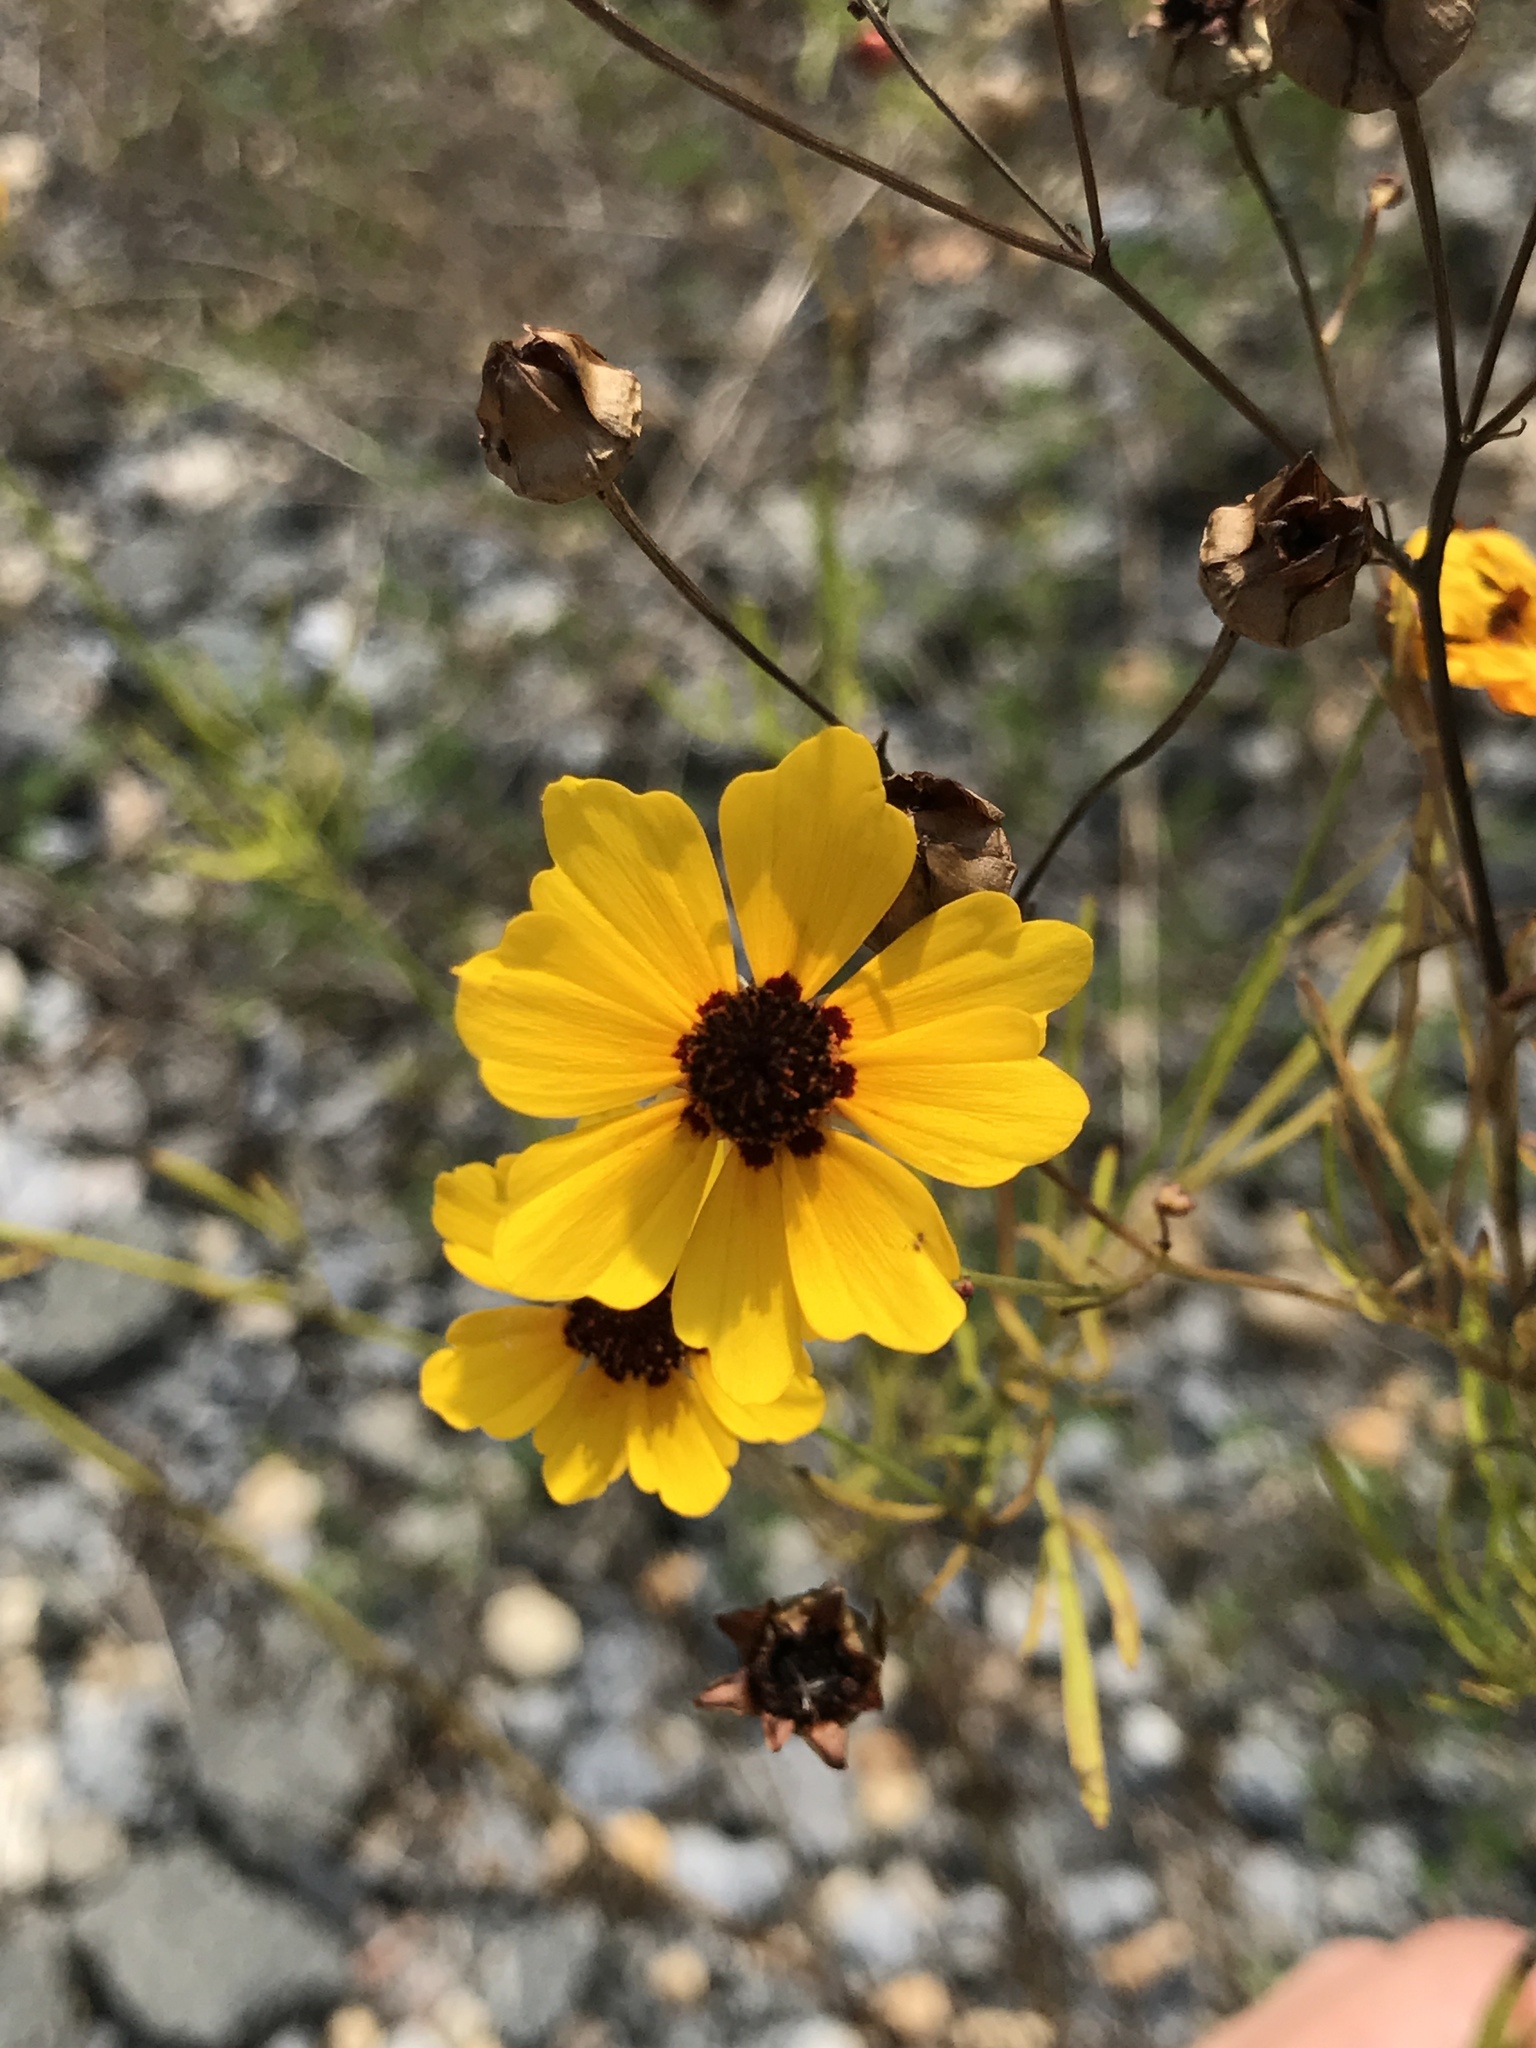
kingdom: Plantae
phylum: Tracheophyta
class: Magnoliopsida
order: Asterales
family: Asteraceae
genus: Coreopsis
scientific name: Coreopsis tinctoria
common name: Garden tickseed
